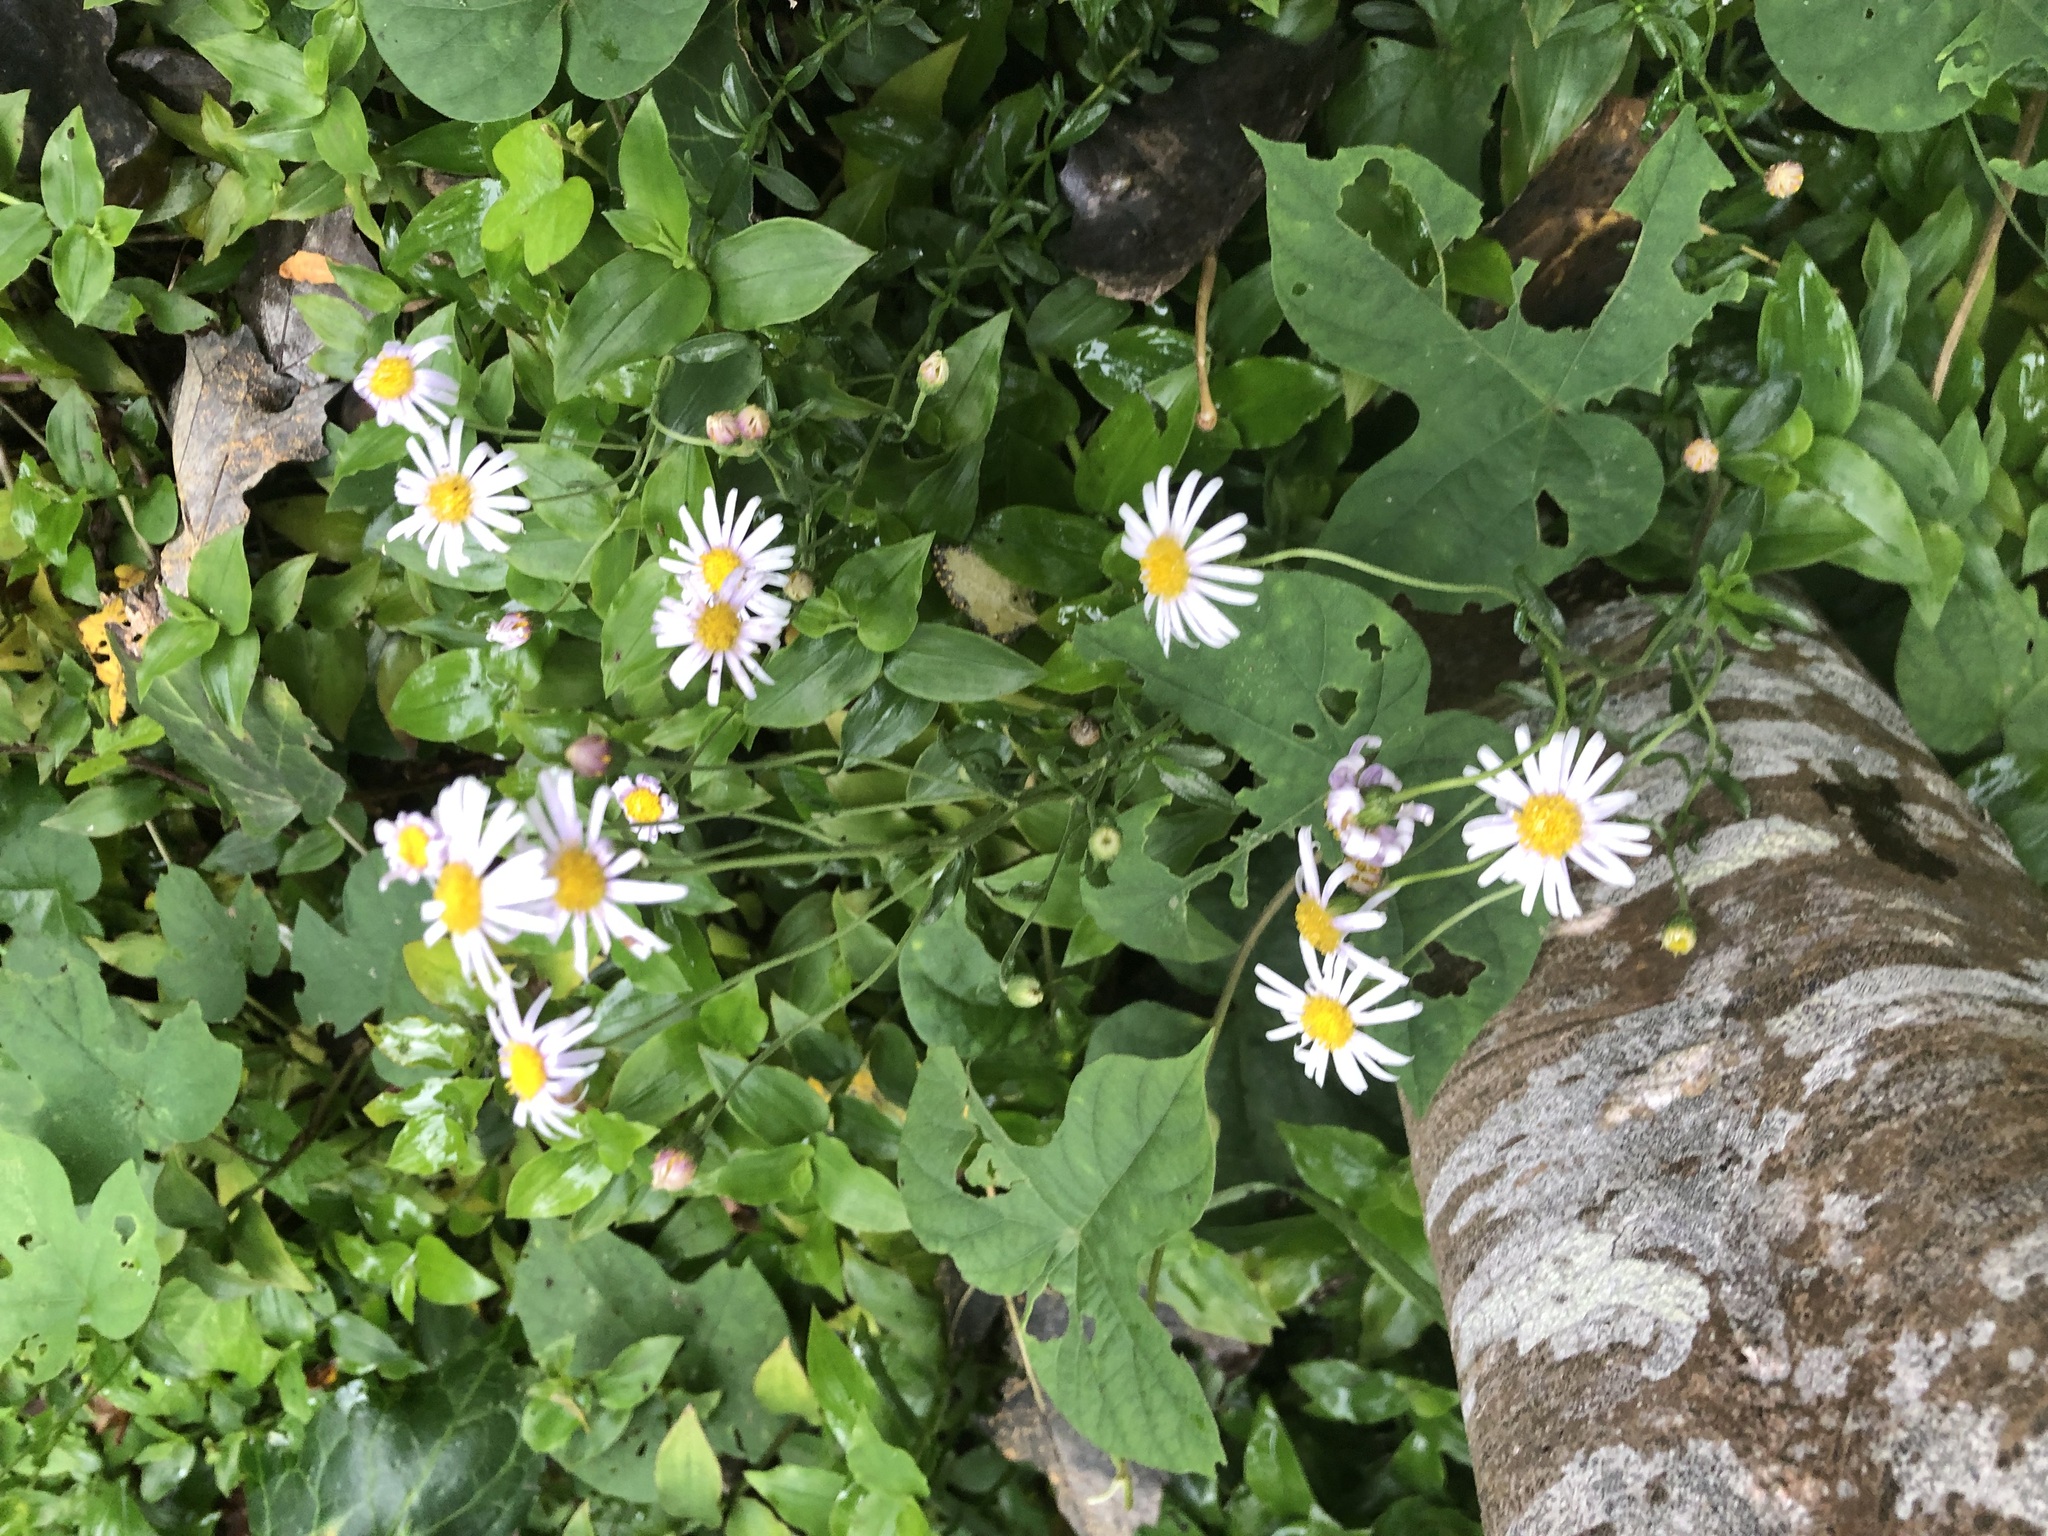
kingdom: Plantae
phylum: Tracheophyta
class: Magnoliopsida
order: Asterales
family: Asteraceae
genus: Felicia
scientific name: Felicia amelloides
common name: Blue marguerite
